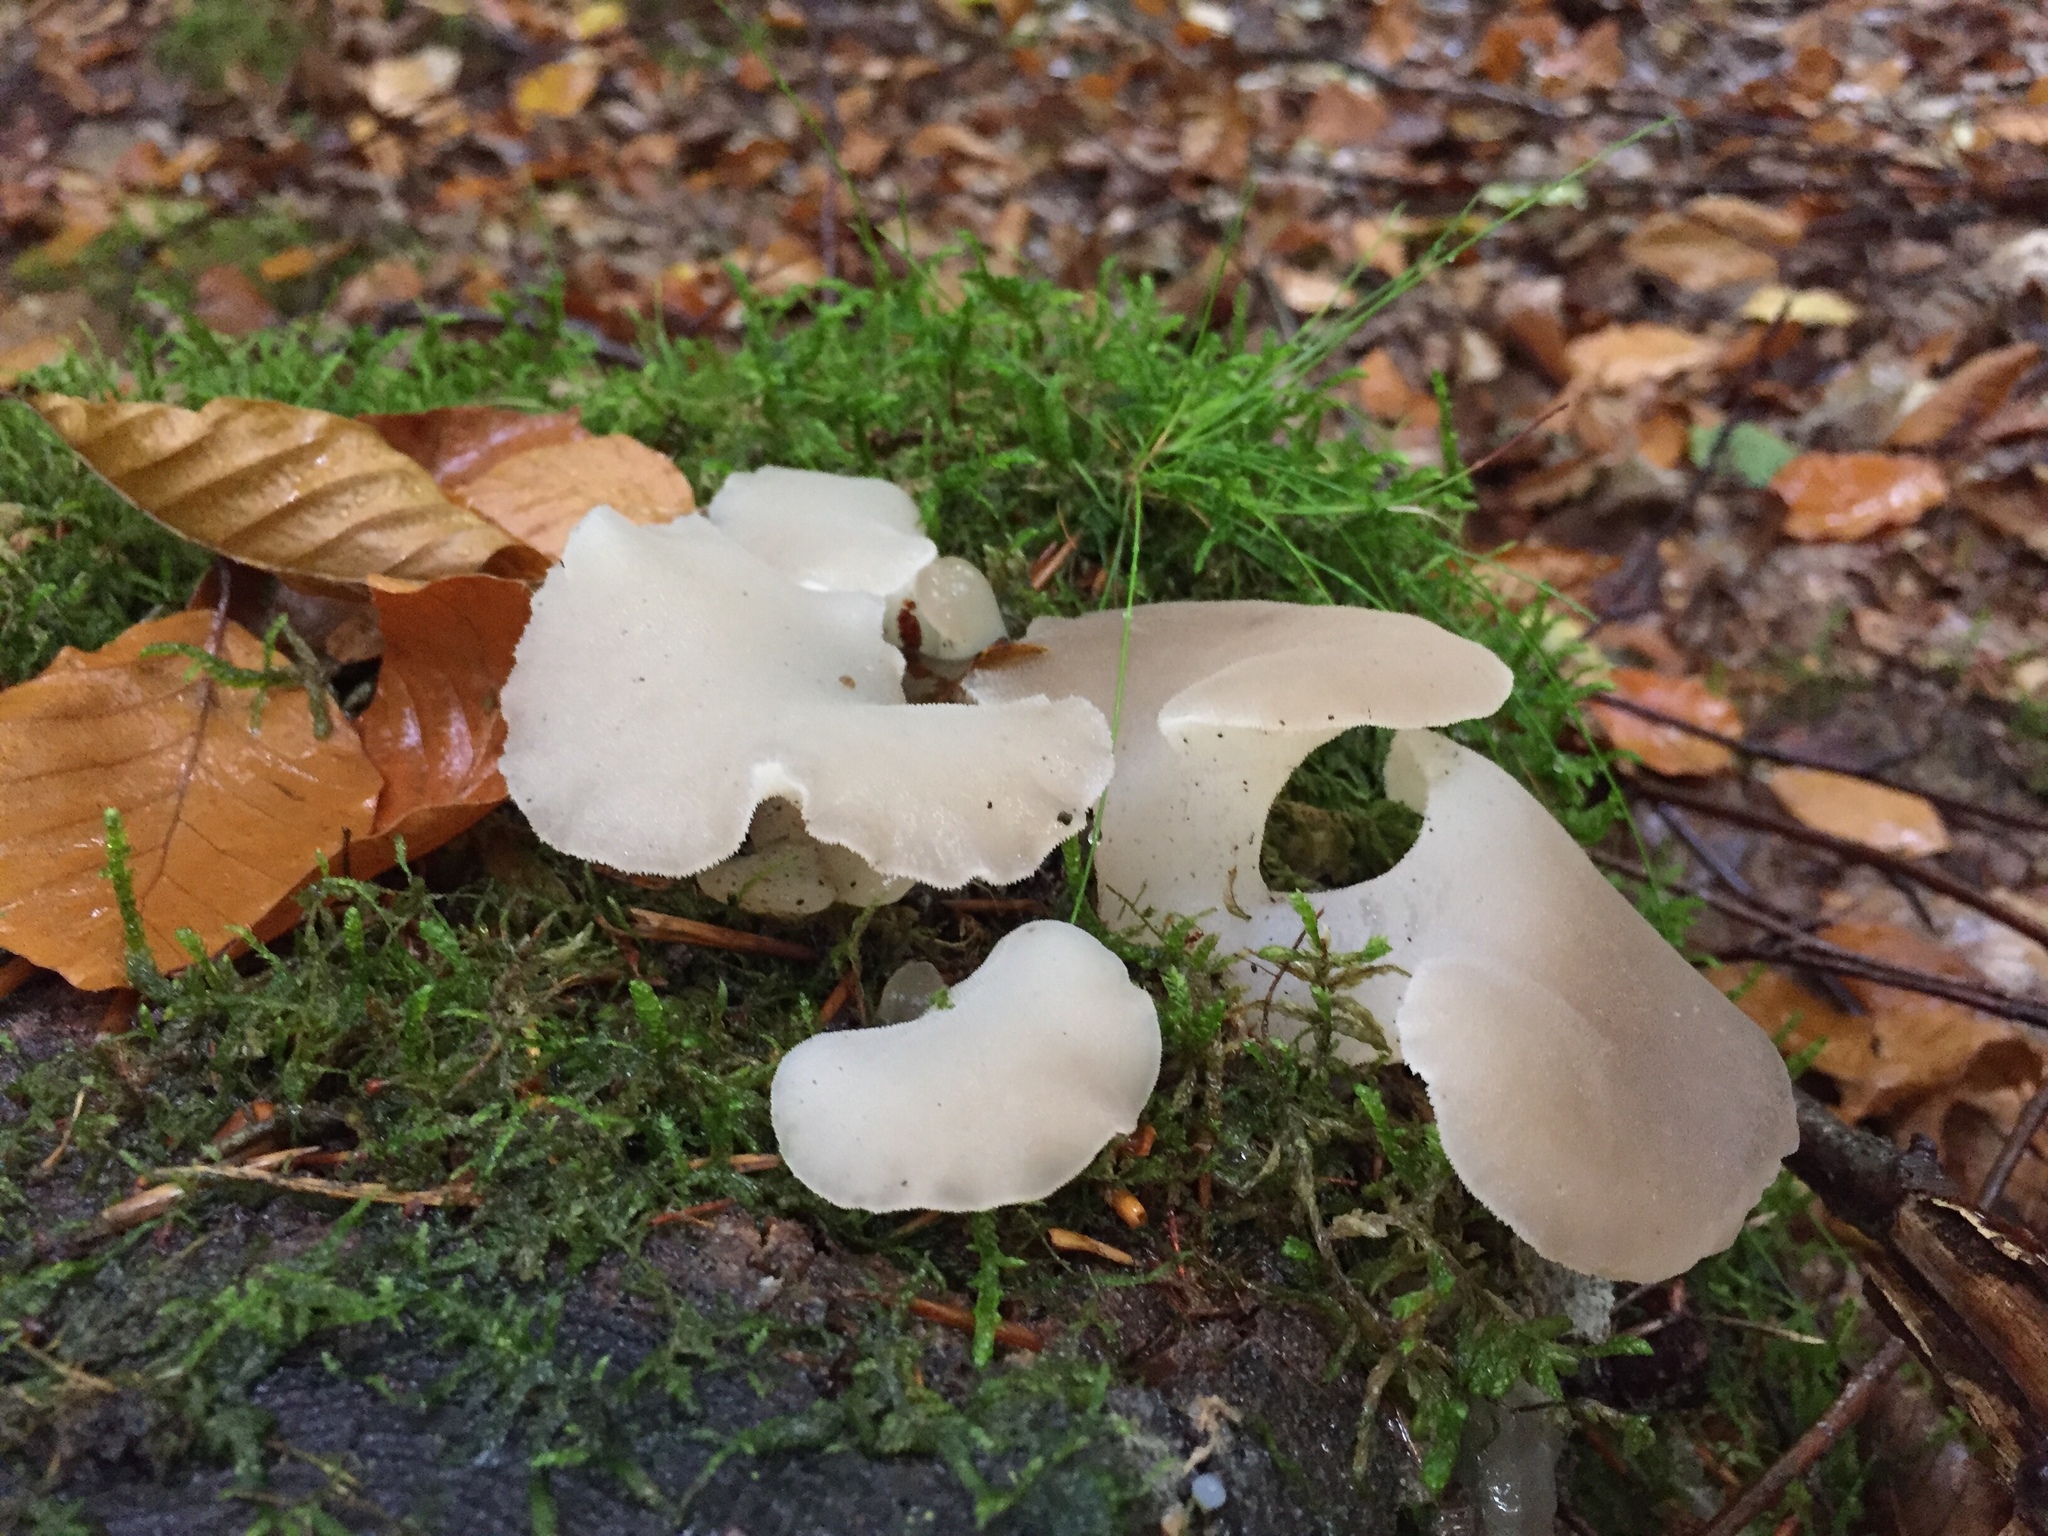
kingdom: Fungi
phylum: Basidiomycota
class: Agaricomycetes
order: Auriculariales
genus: Pseudohydnum
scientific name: Pseudohydnum gelatinosum
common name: Jelly tongue
